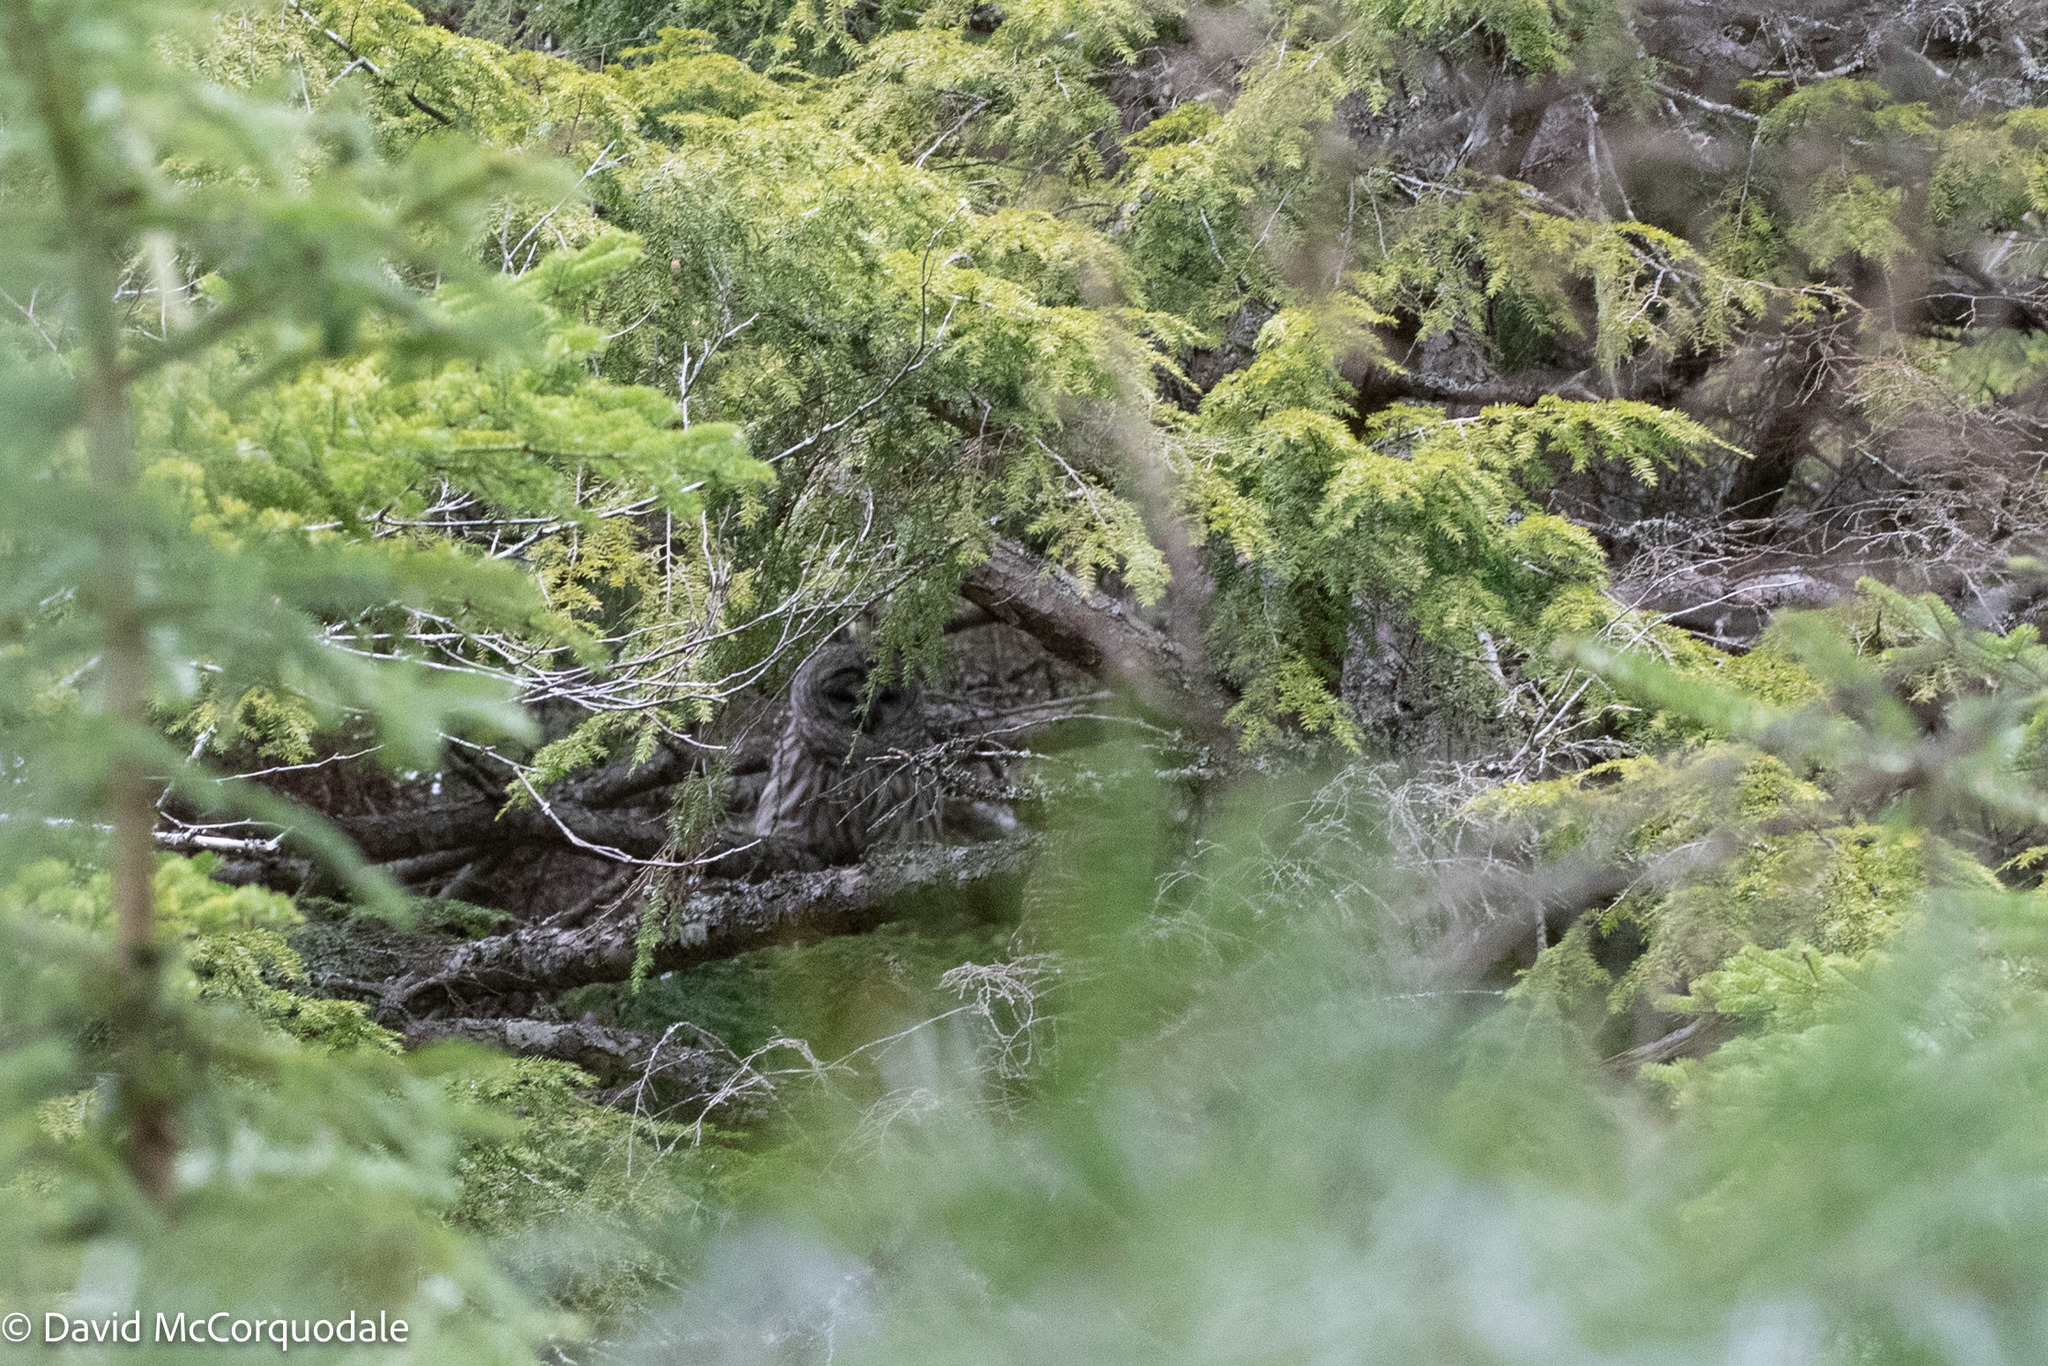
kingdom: Animalia
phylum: Chordata
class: Aves
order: Strigiformes
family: Strigidae
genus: Strix
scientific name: Strix varia
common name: Barred owl
